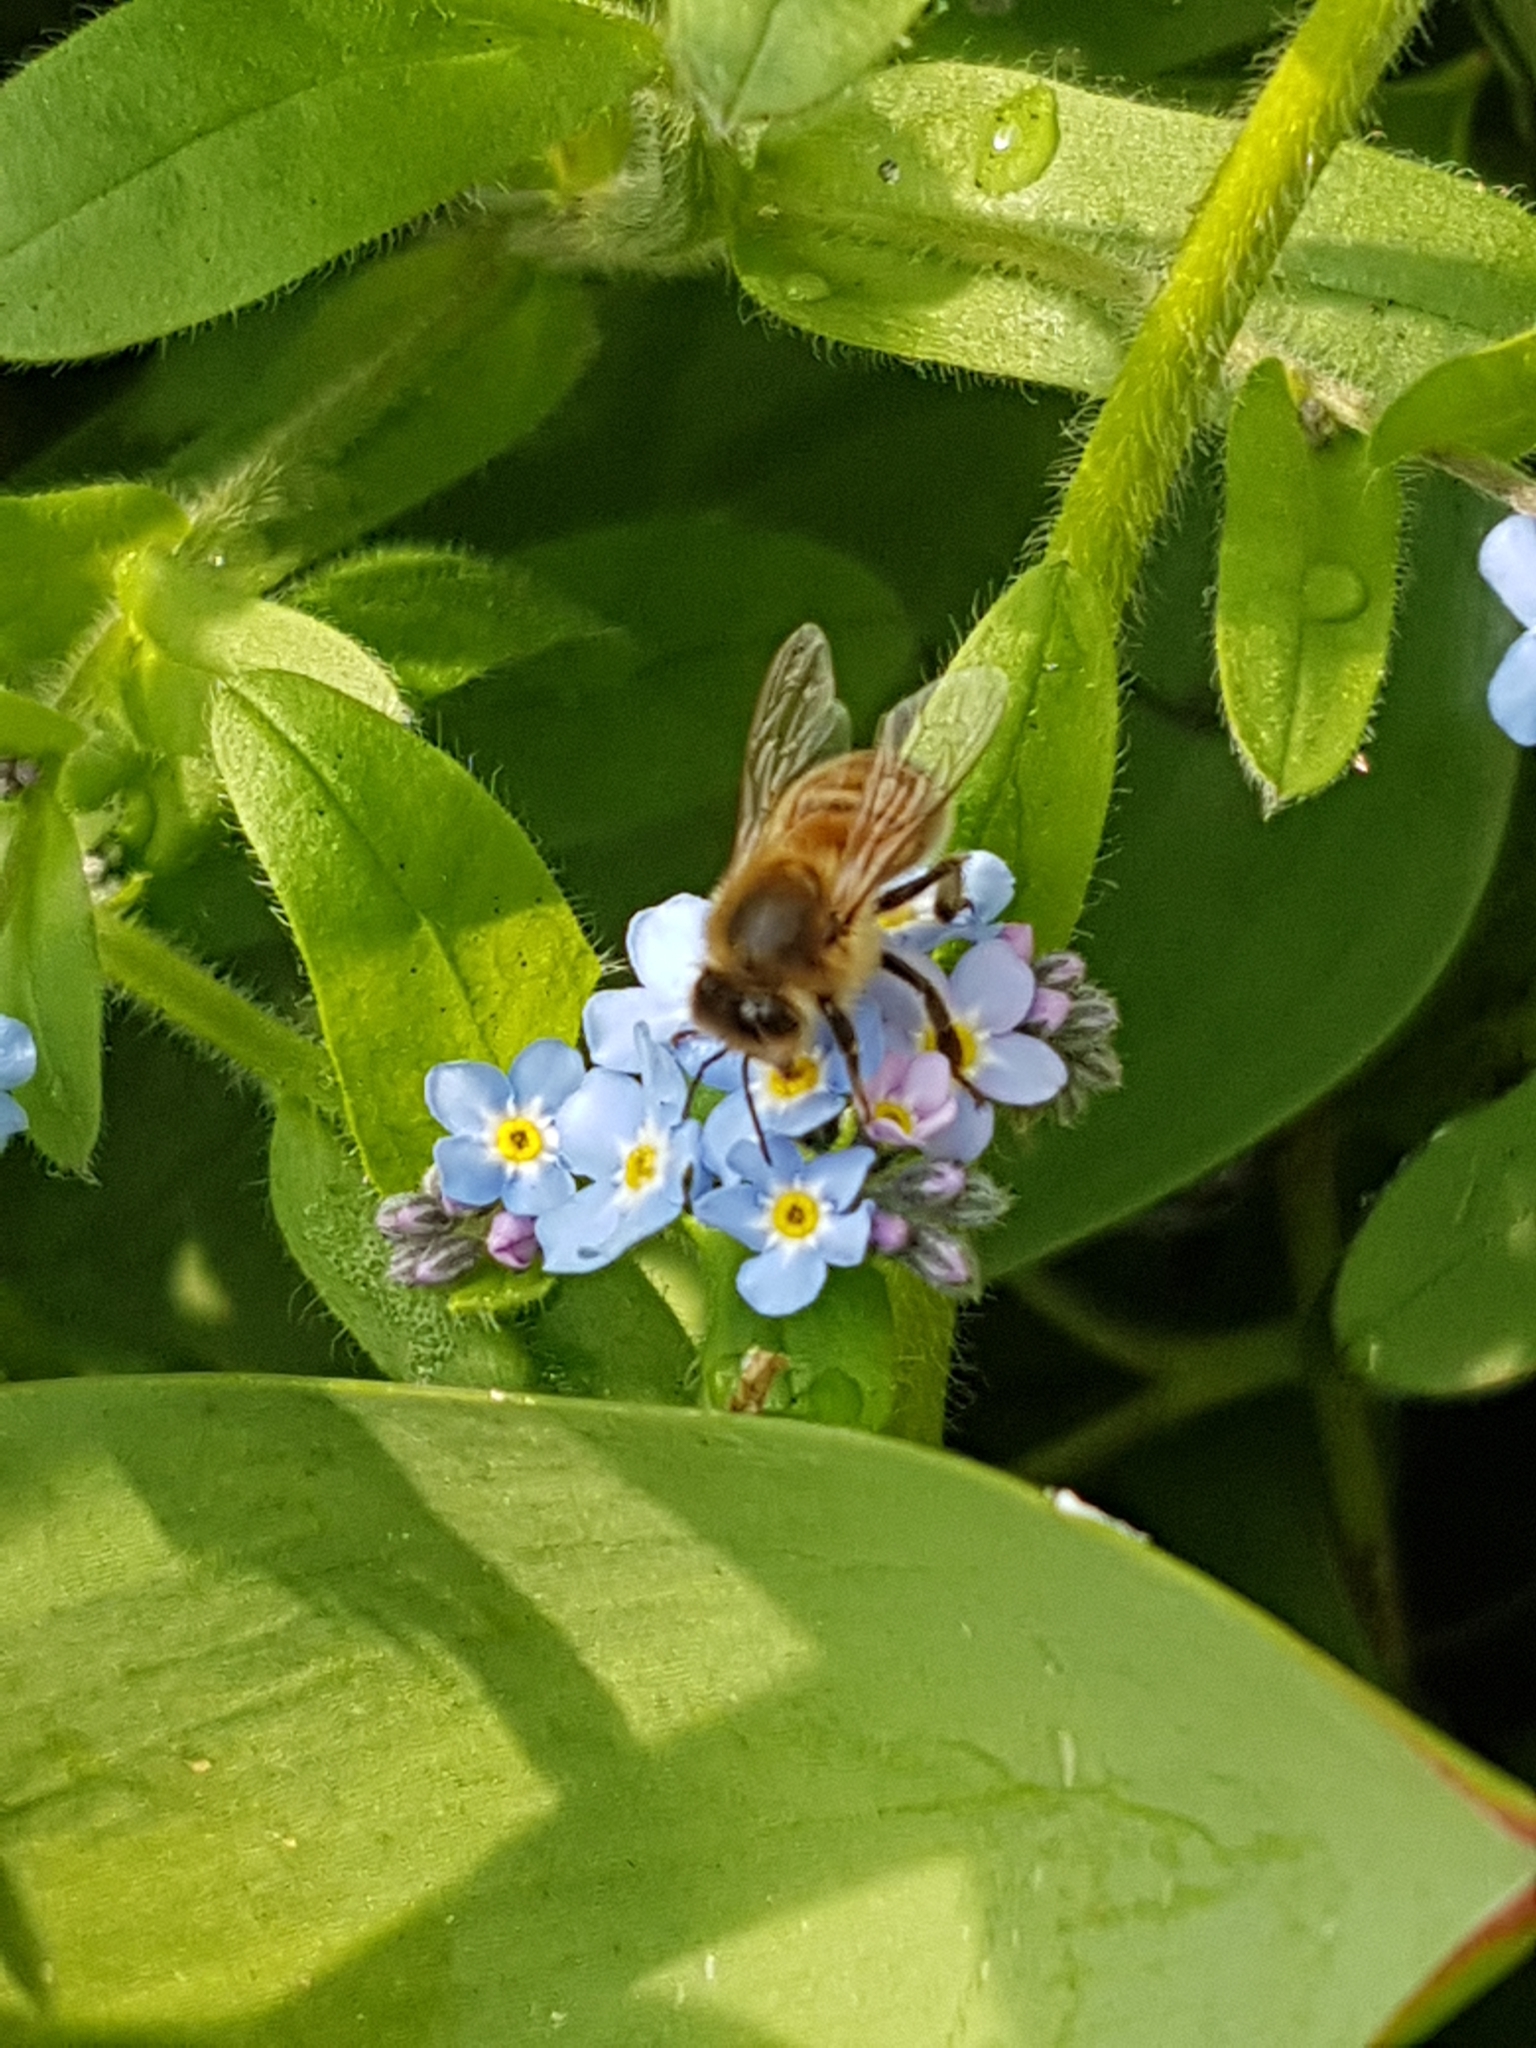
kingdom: Animalia
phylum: Arthropoda
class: Insecta
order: Hymenoptera
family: Apidae
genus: Apis
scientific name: Apis mellifera
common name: Honey bee
